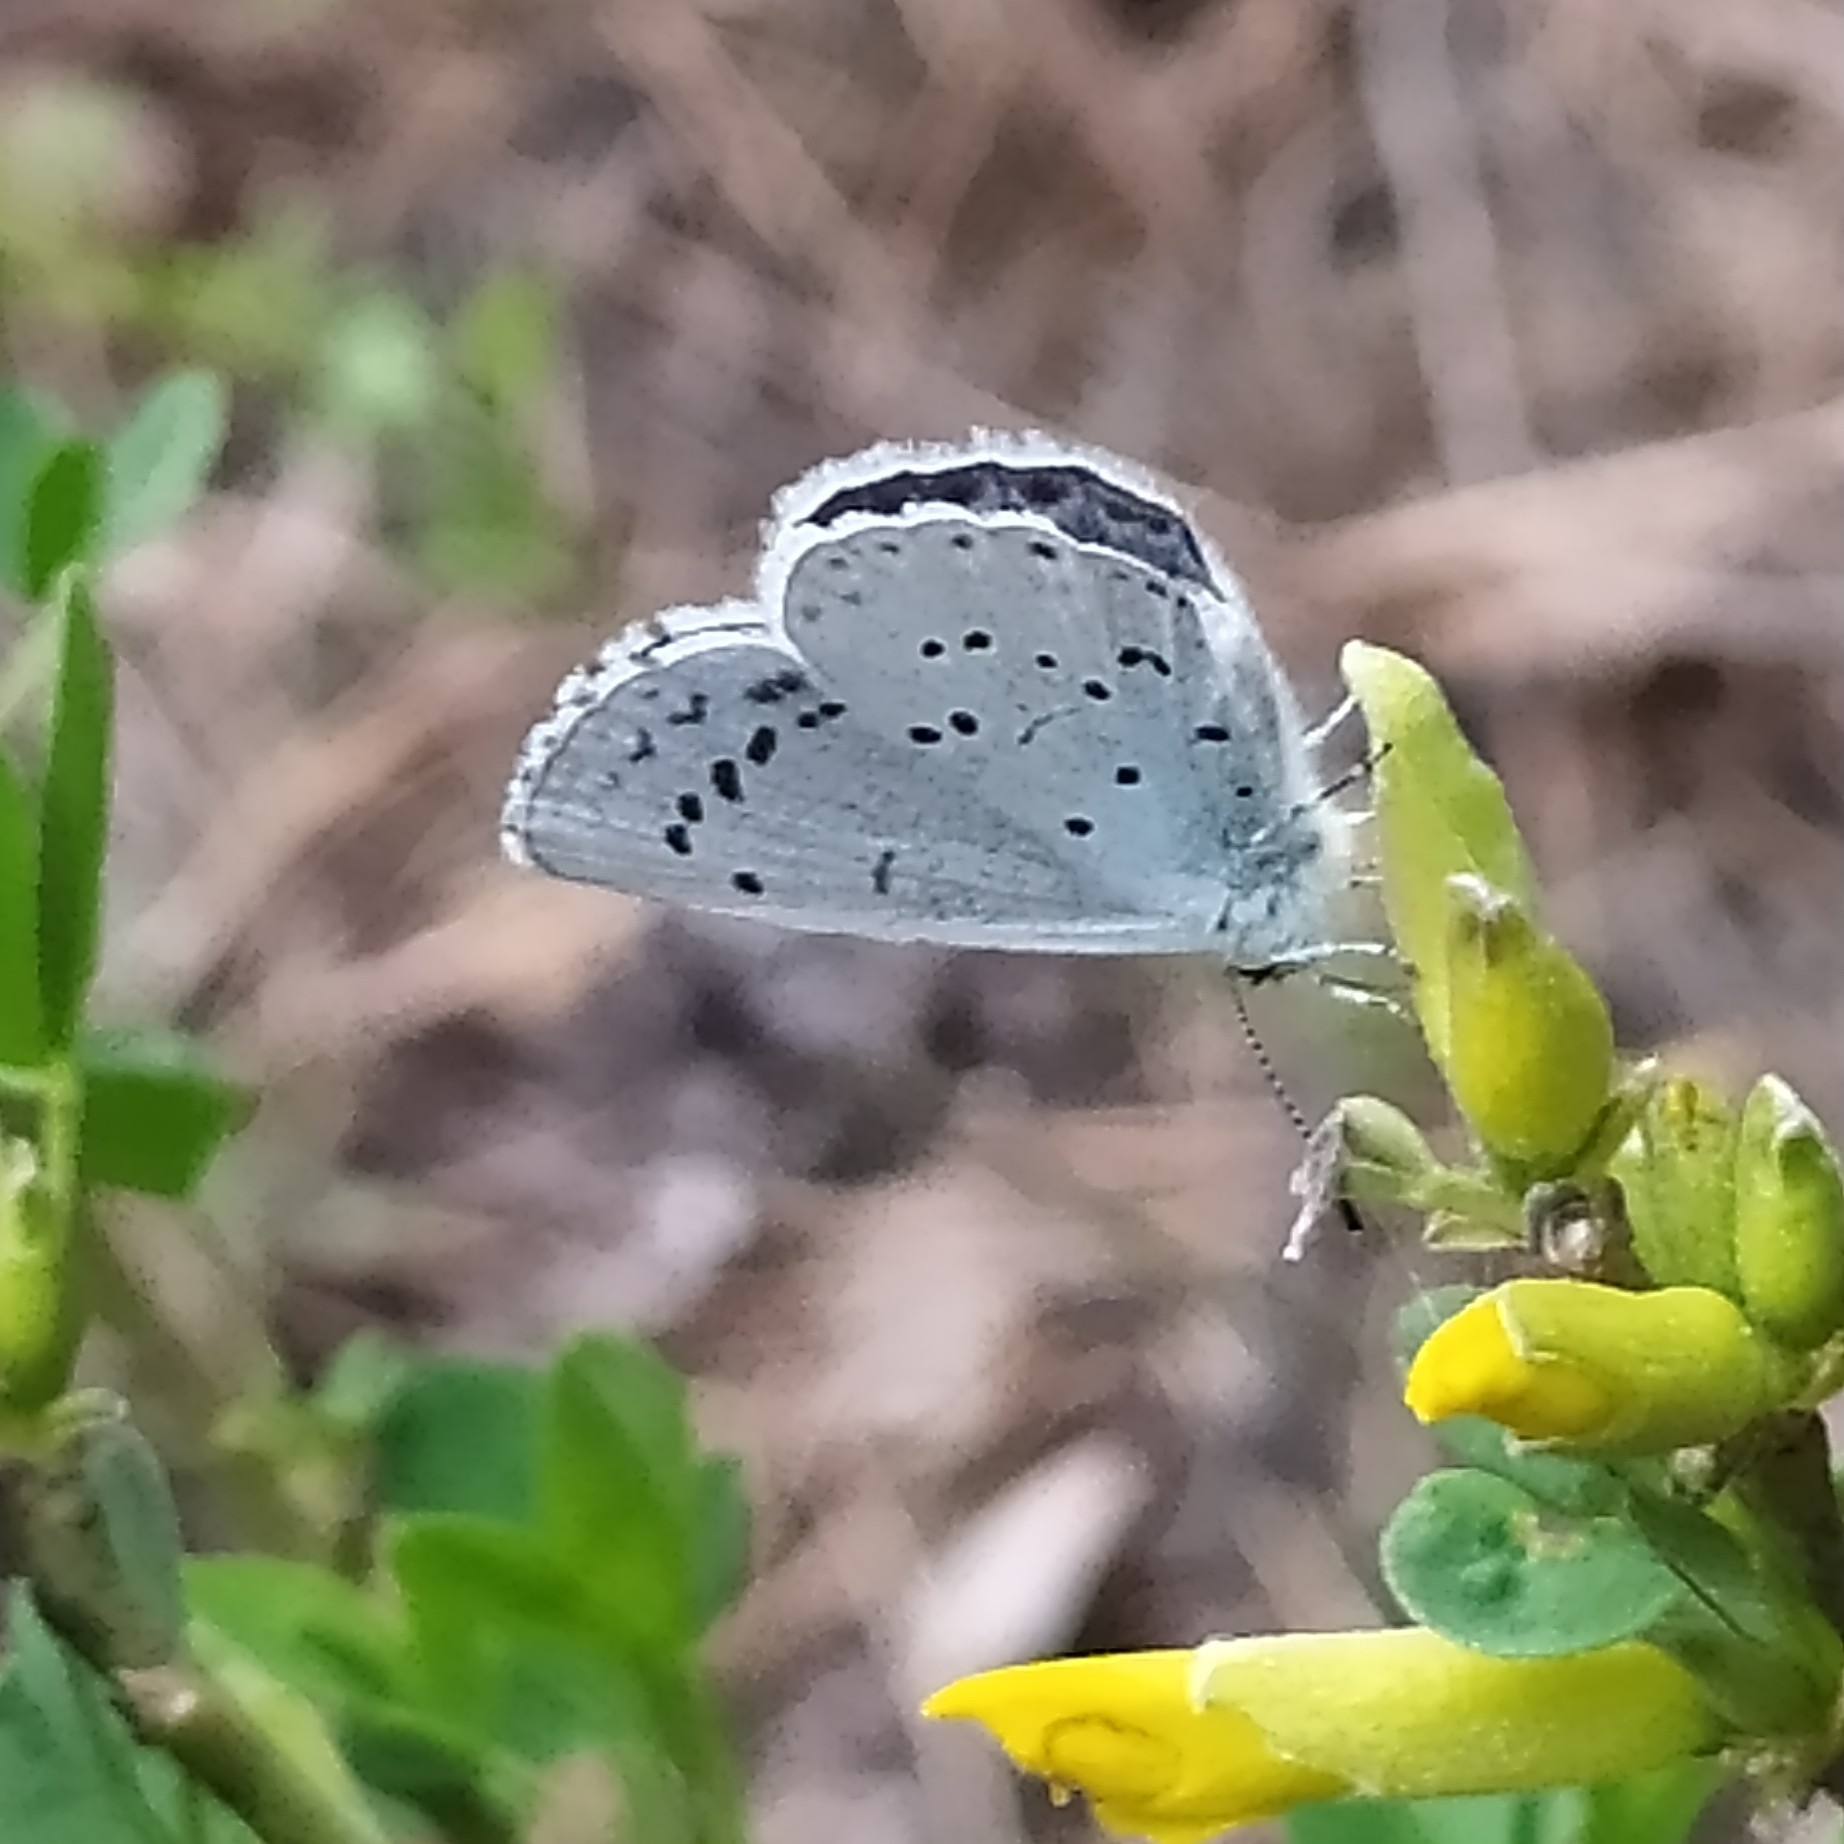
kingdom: Animalia
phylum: Arthropoda
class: Insecta
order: Lepidoptera
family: Lycaenidae
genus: Celastrina
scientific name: Celastrina argiolus
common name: Holly blue
